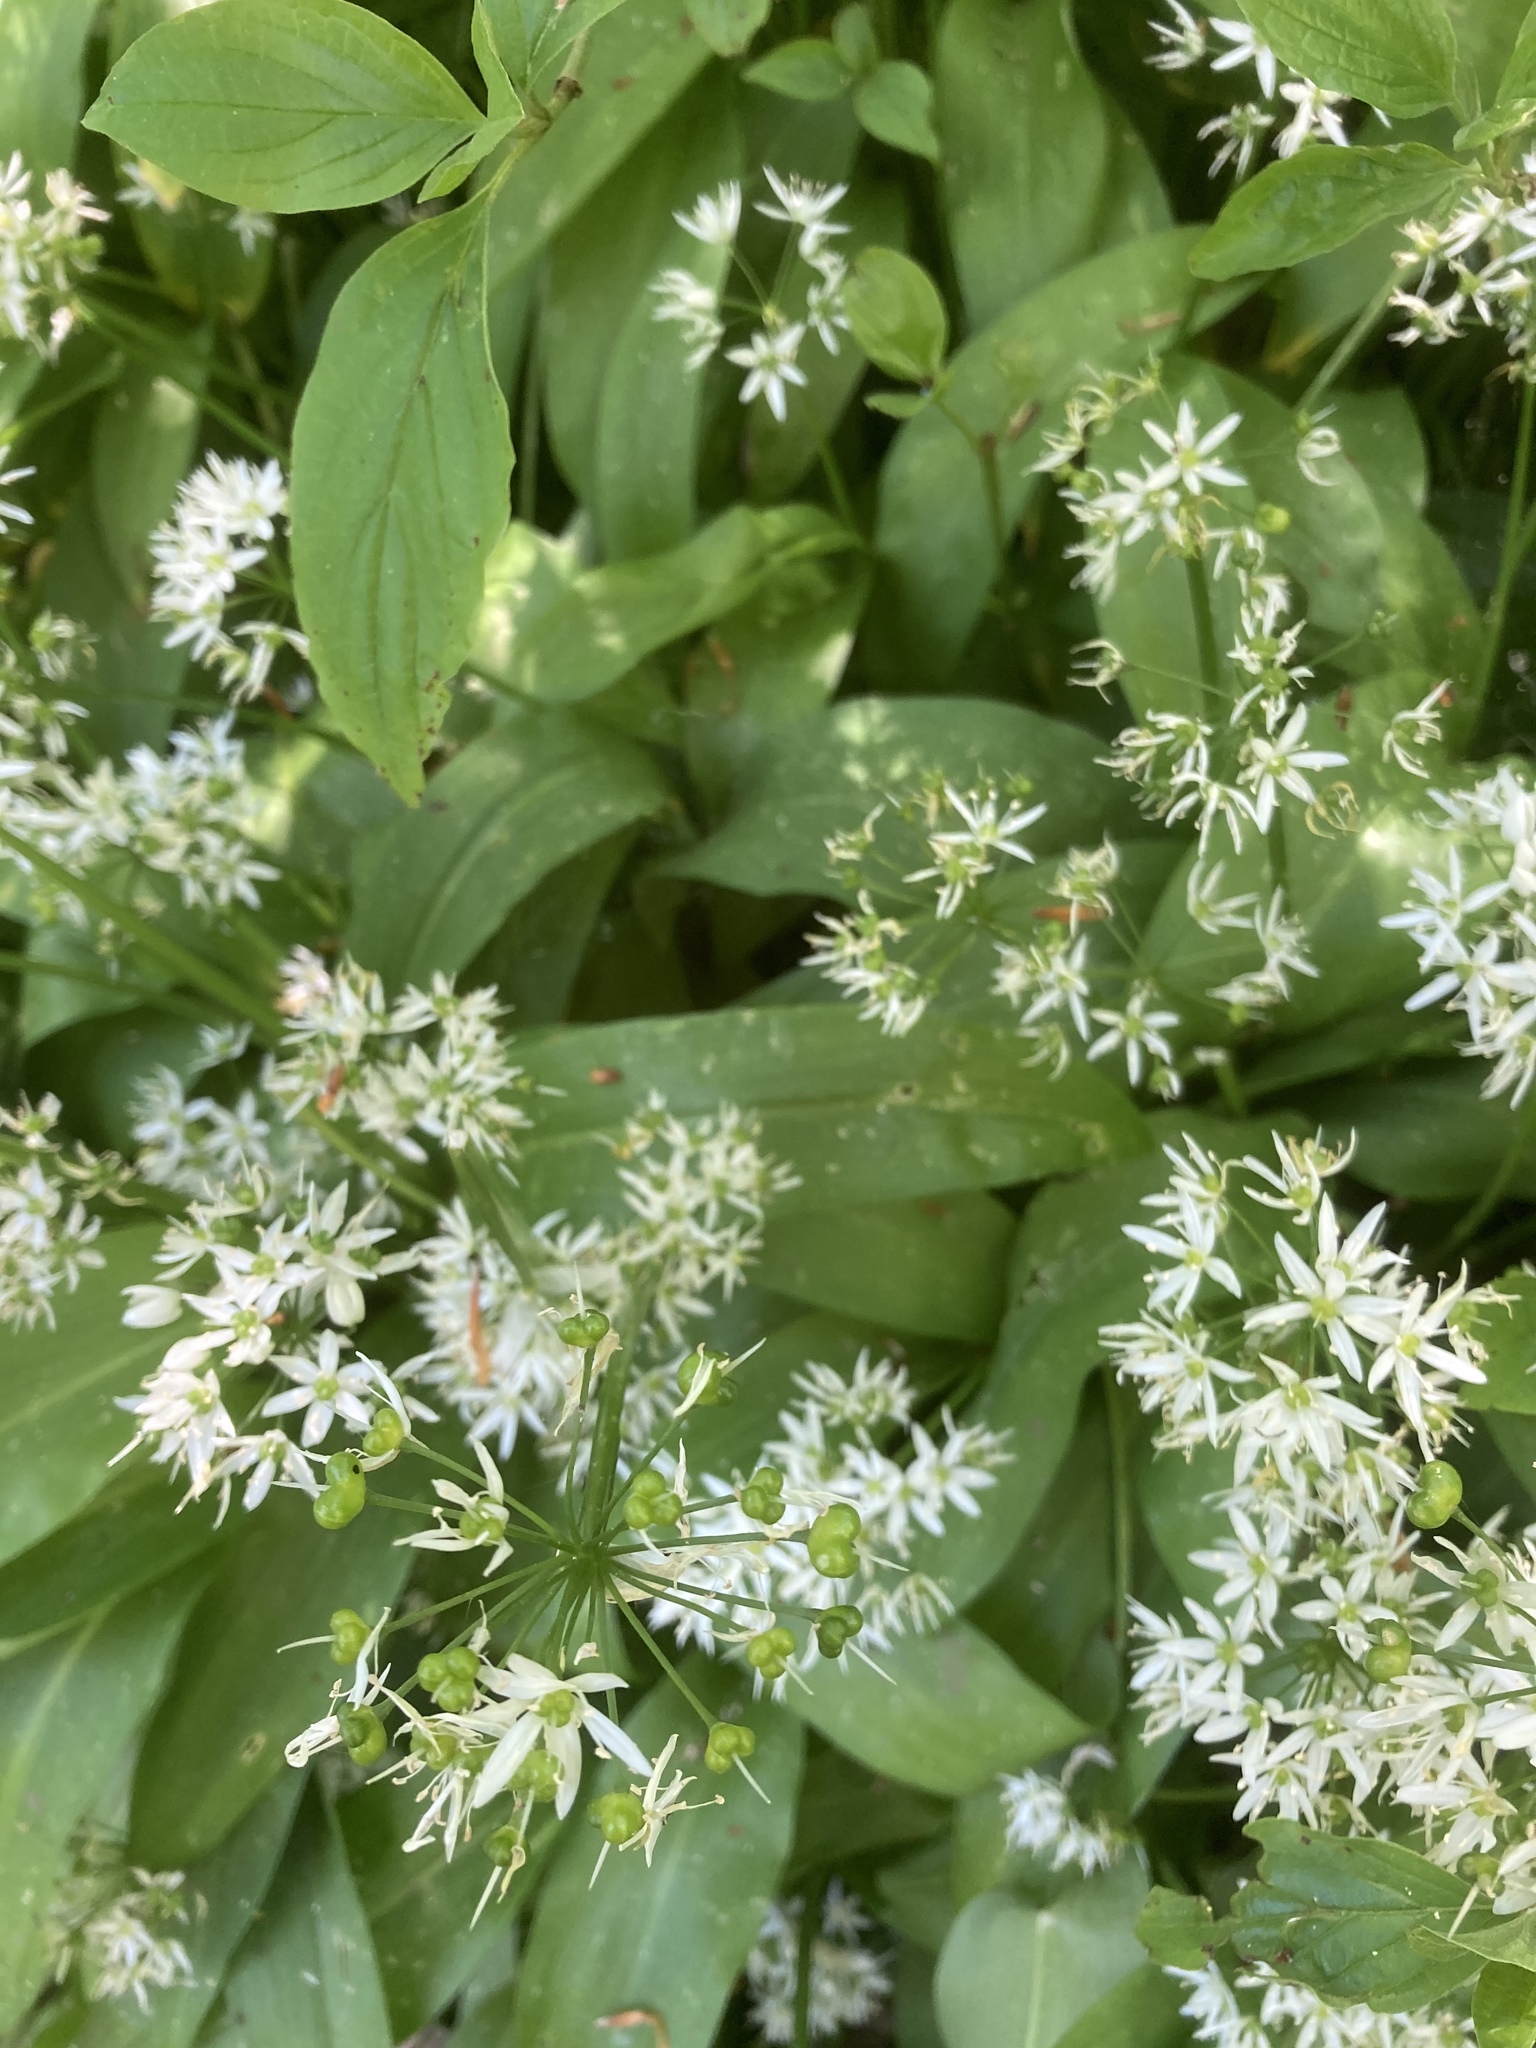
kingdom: Plantae
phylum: Tracheophyta
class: Liliopsida
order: Asparagales
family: Amaryllidaceae
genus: Allium
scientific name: Allium ursinum
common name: Ramsons
